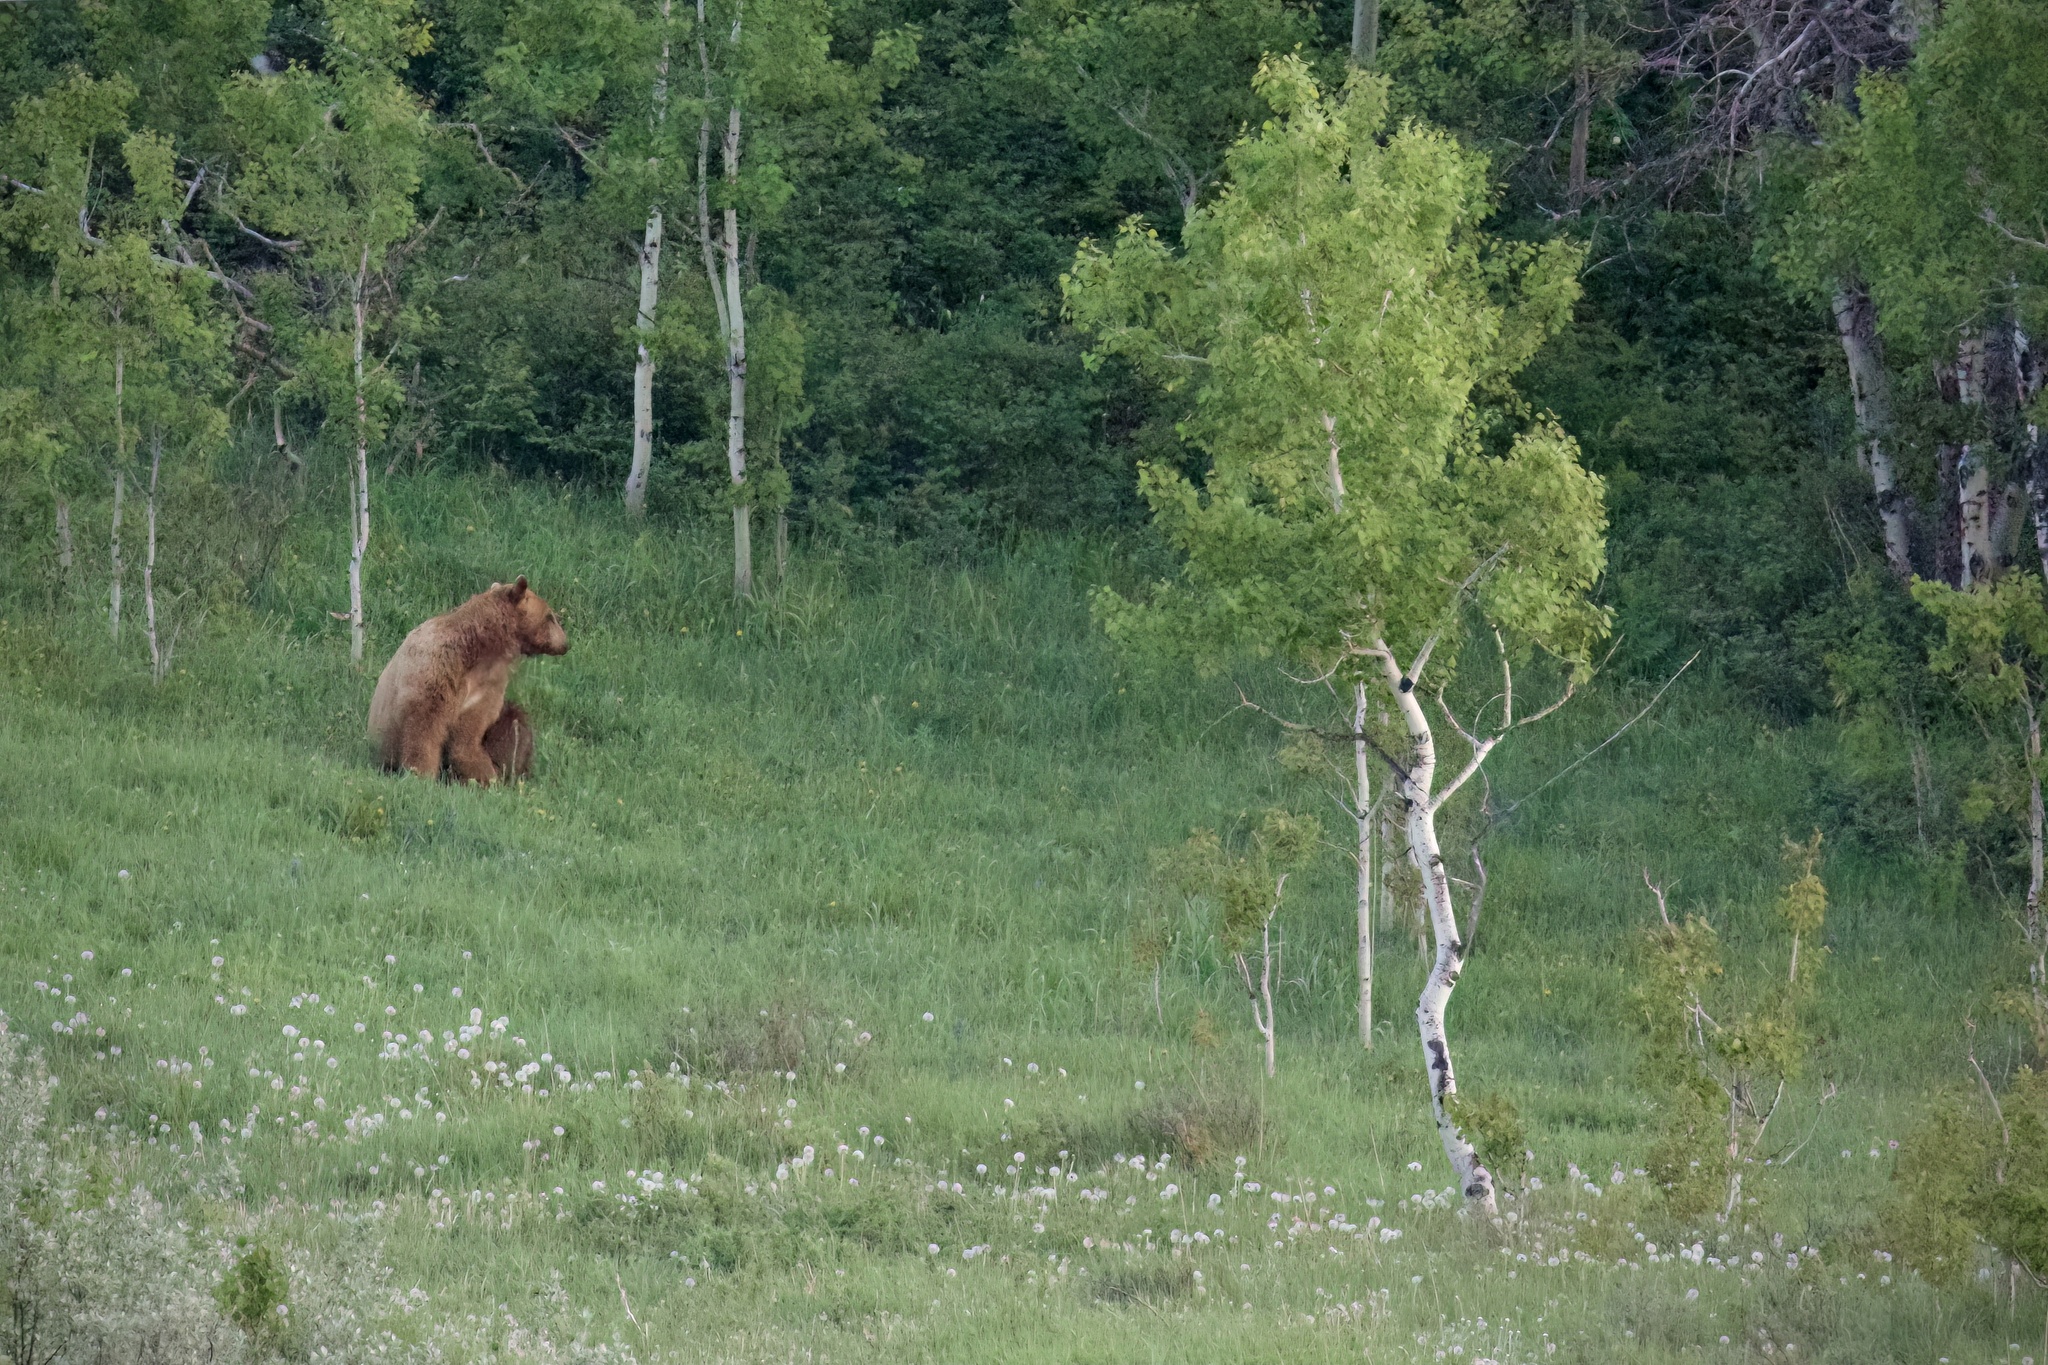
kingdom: Animalia
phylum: Chordata
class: Mammalia
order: Carnivora
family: Ursidae
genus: Ursus
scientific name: Ursus americanus
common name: American black bear
